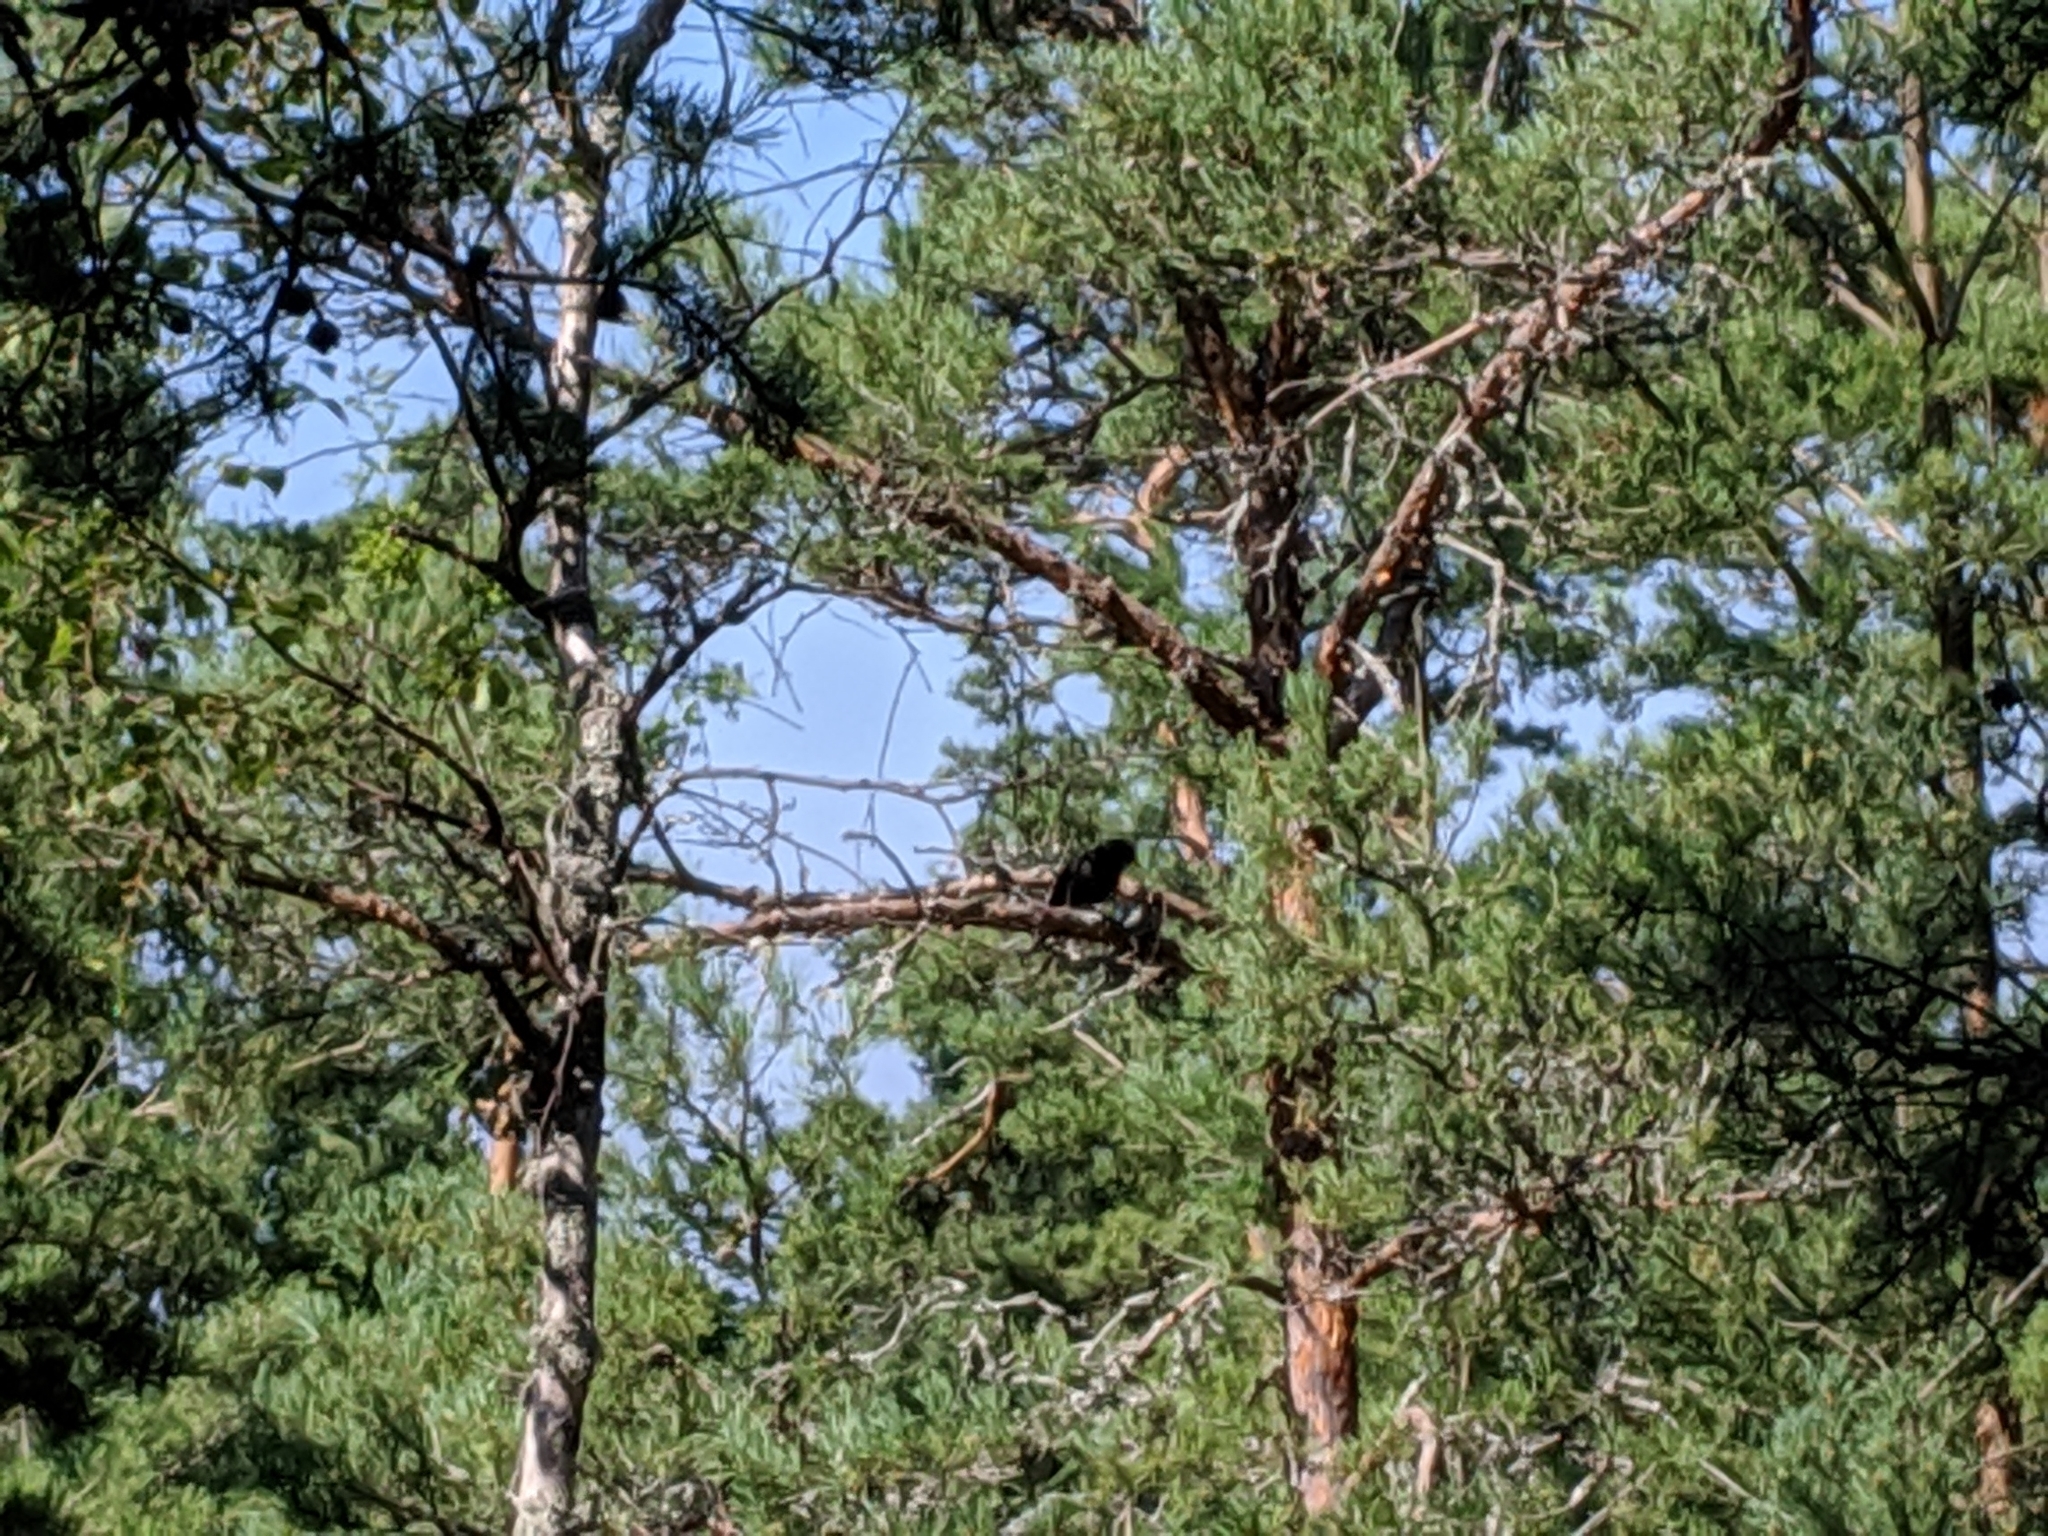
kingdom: Animalia
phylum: Chordata
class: Aves
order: Passeriformes
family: Turdidae
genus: Turdus
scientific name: Turdus merula
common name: Common blackbird
